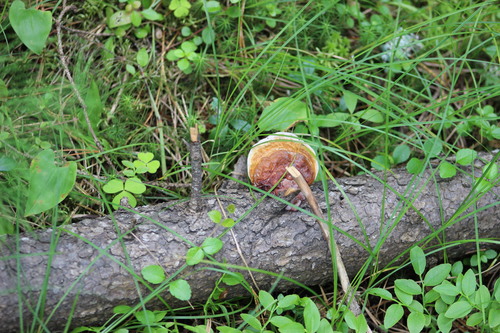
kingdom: Fungi
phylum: Basidiomycota
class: Agaricomycetes
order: Polyporales
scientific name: Polyporales
